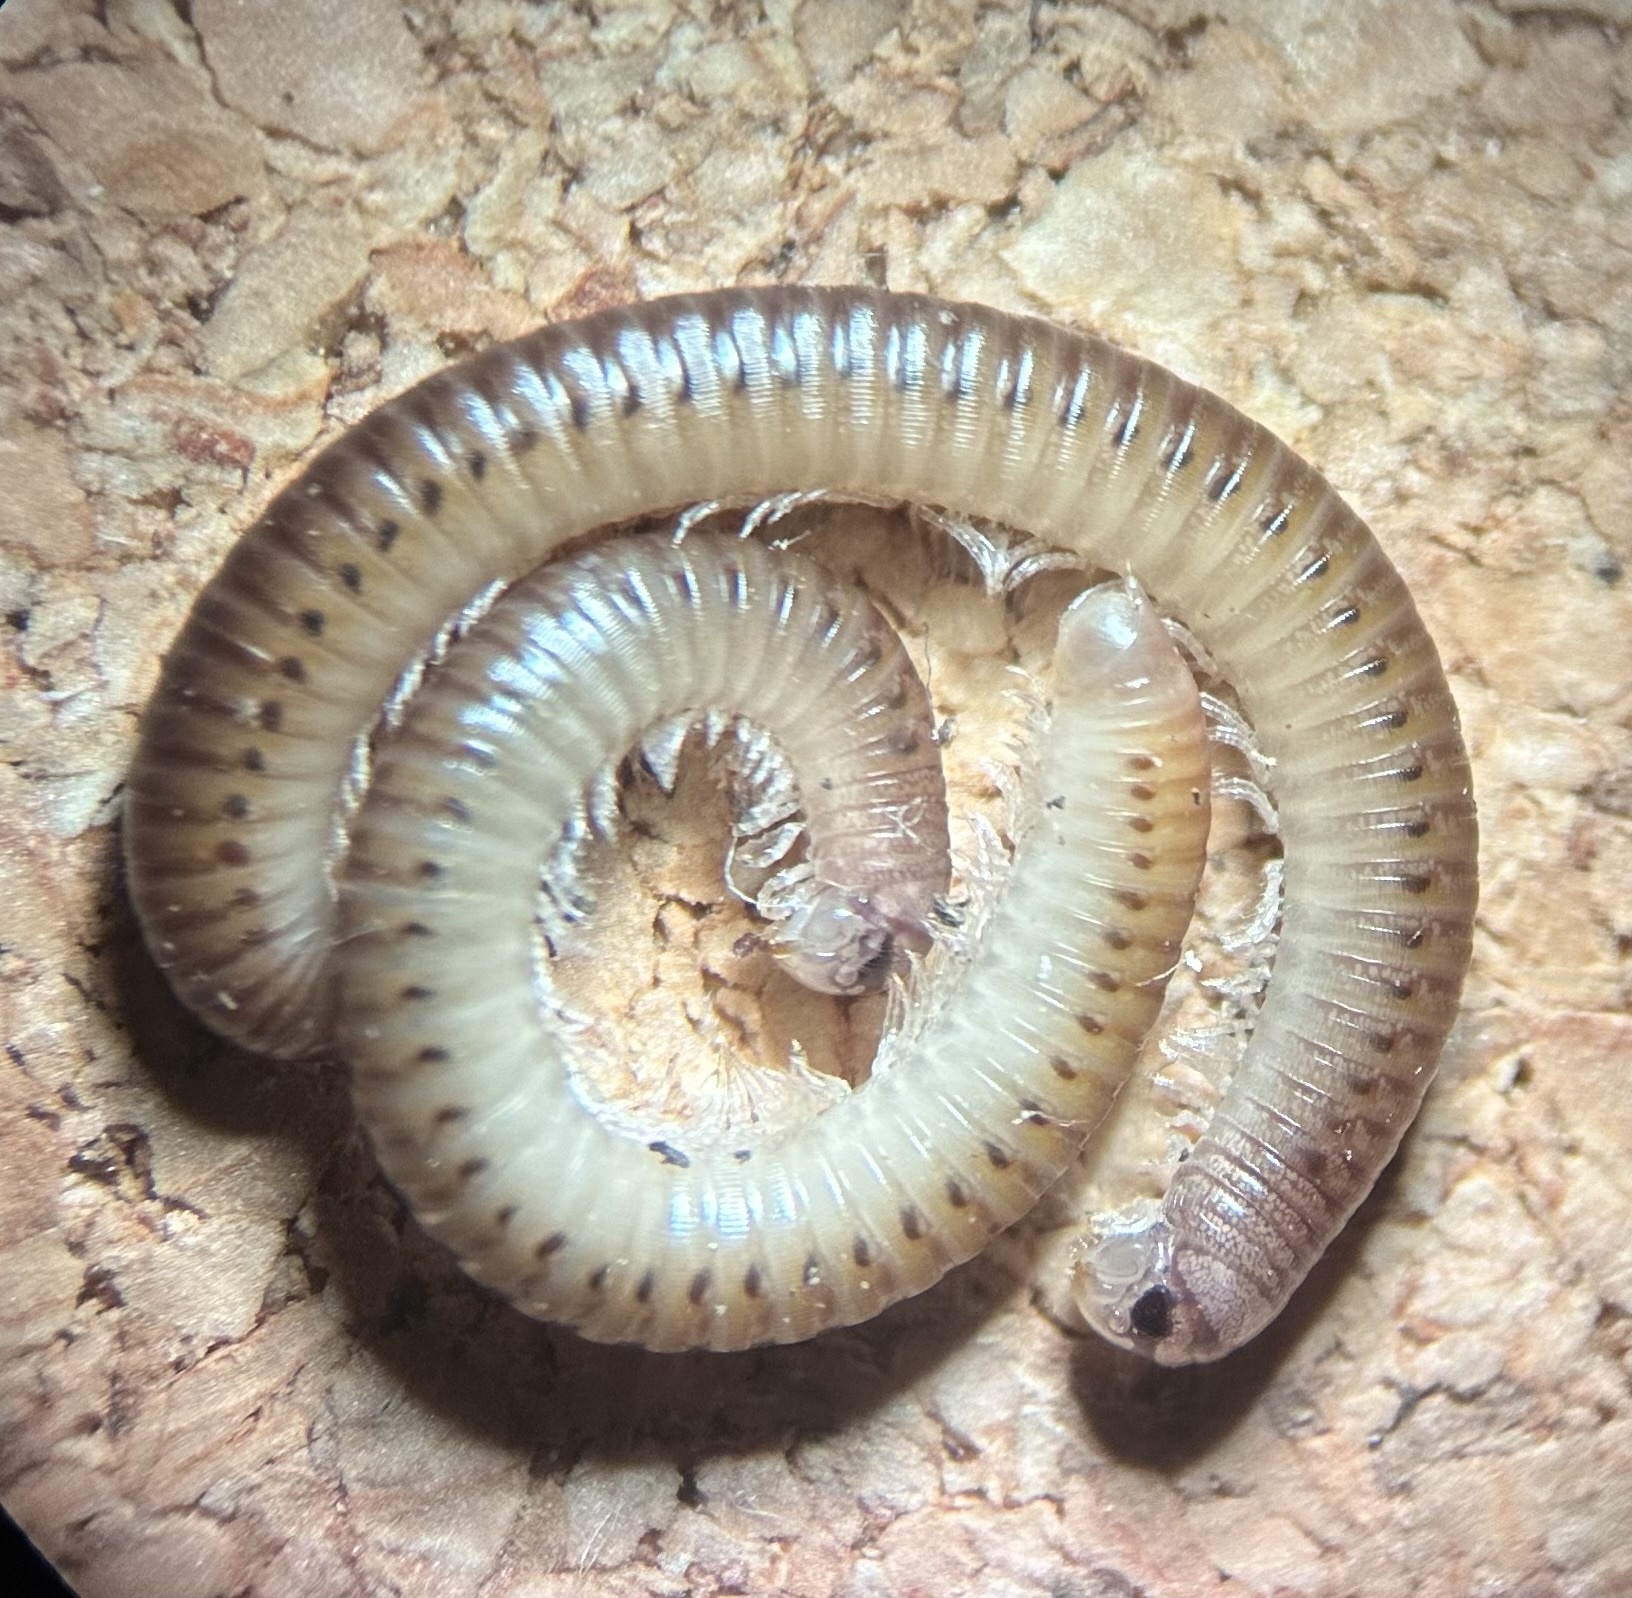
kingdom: Animalia
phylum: Arthropoda
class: Diplopoda
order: Julida
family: Julidae
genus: Cylindroiulus
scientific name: Cylindroiulus punctatus
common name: Blunt-tailed millipede
